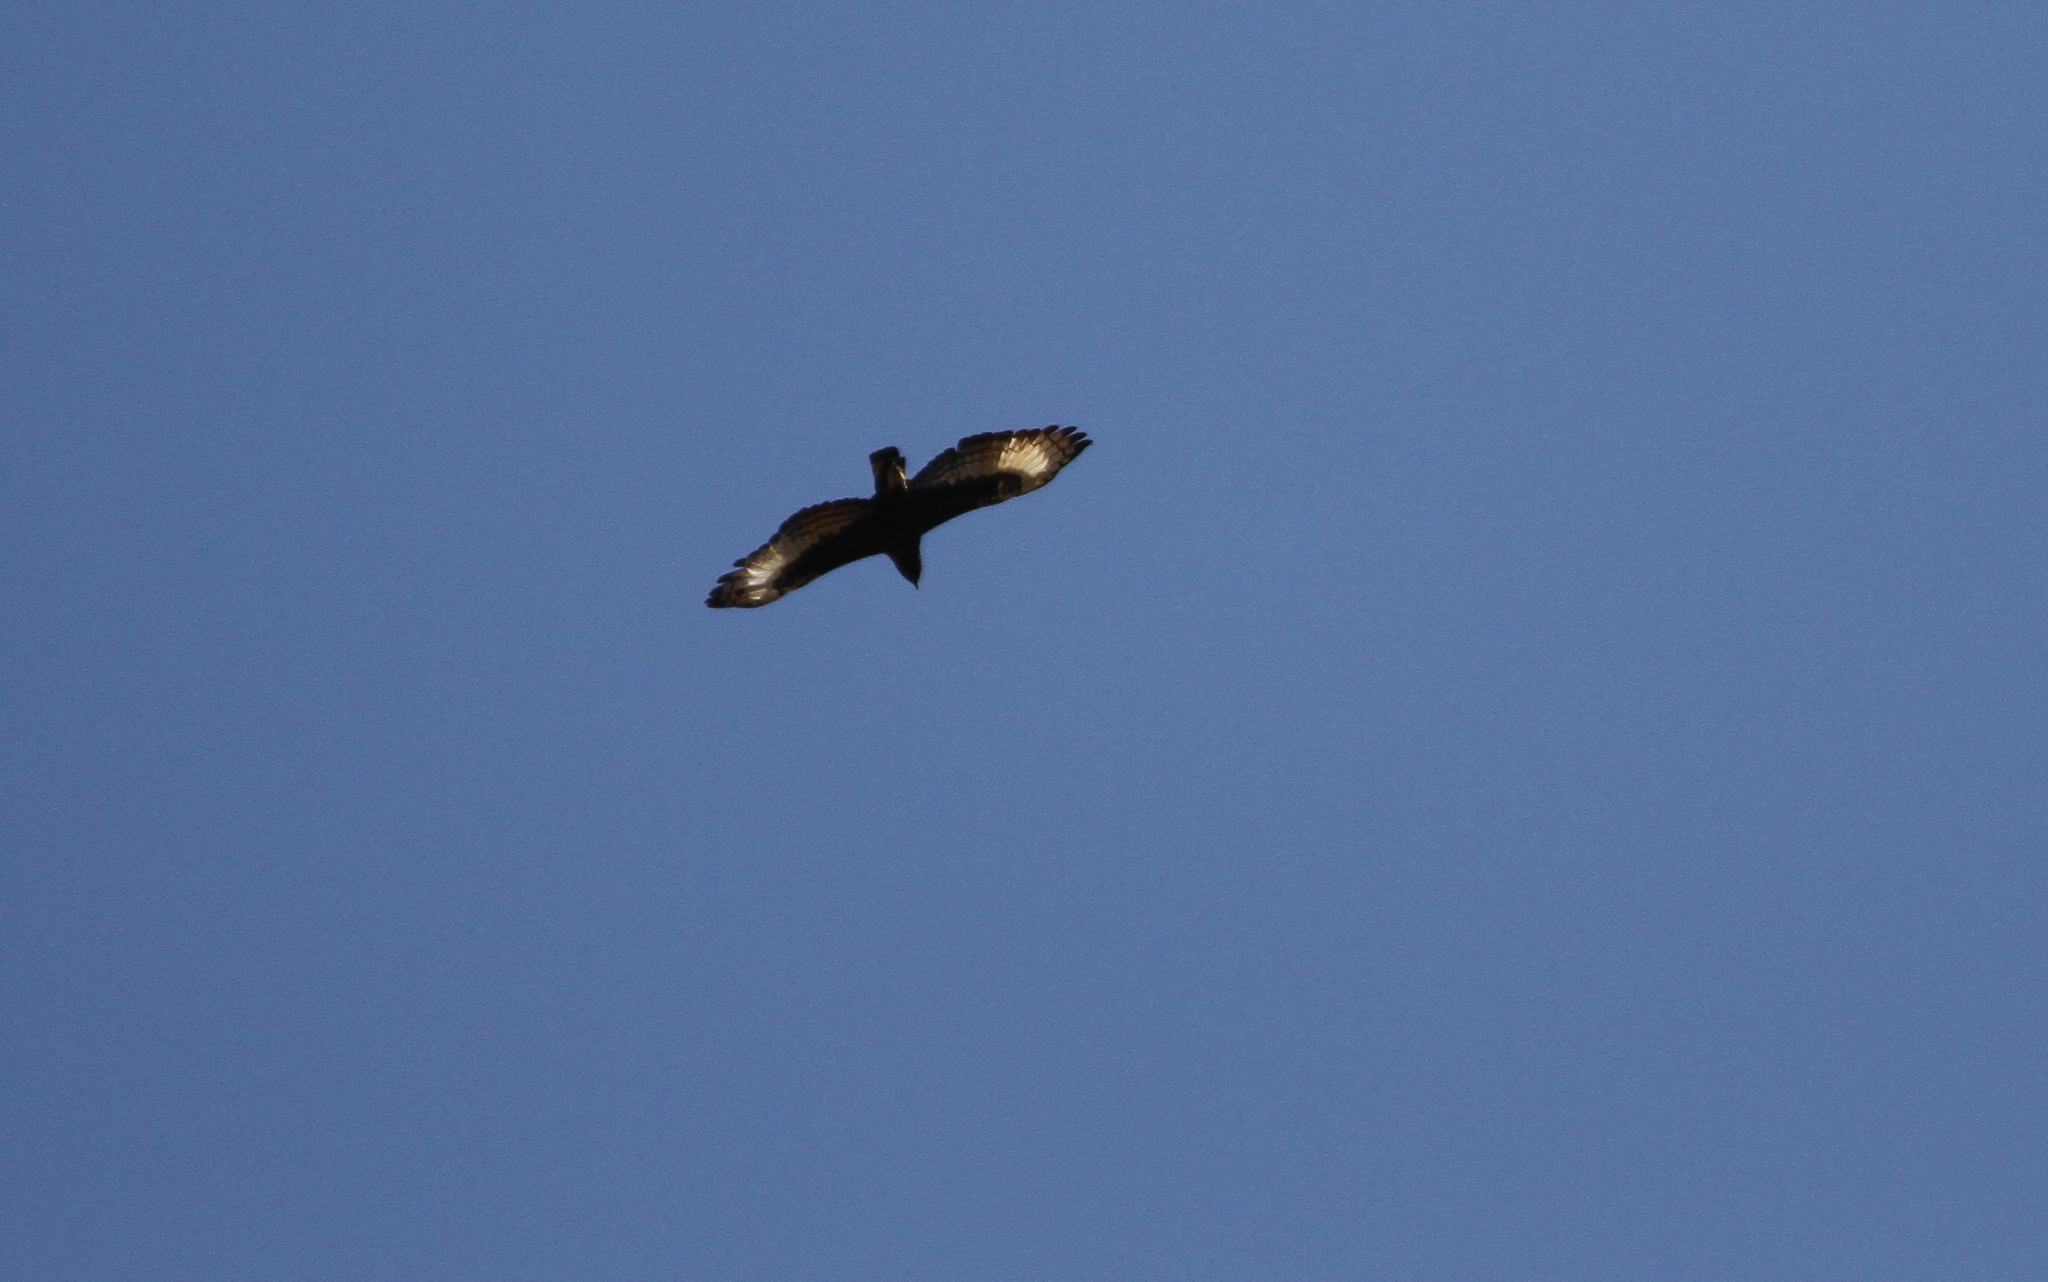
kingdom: Animalia
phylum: Chordata
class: Aves
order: Accipitriformes
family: Accipitridae
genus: Lophaetus
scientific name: Lophaetus occipitalis
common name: Long-crested eagle
